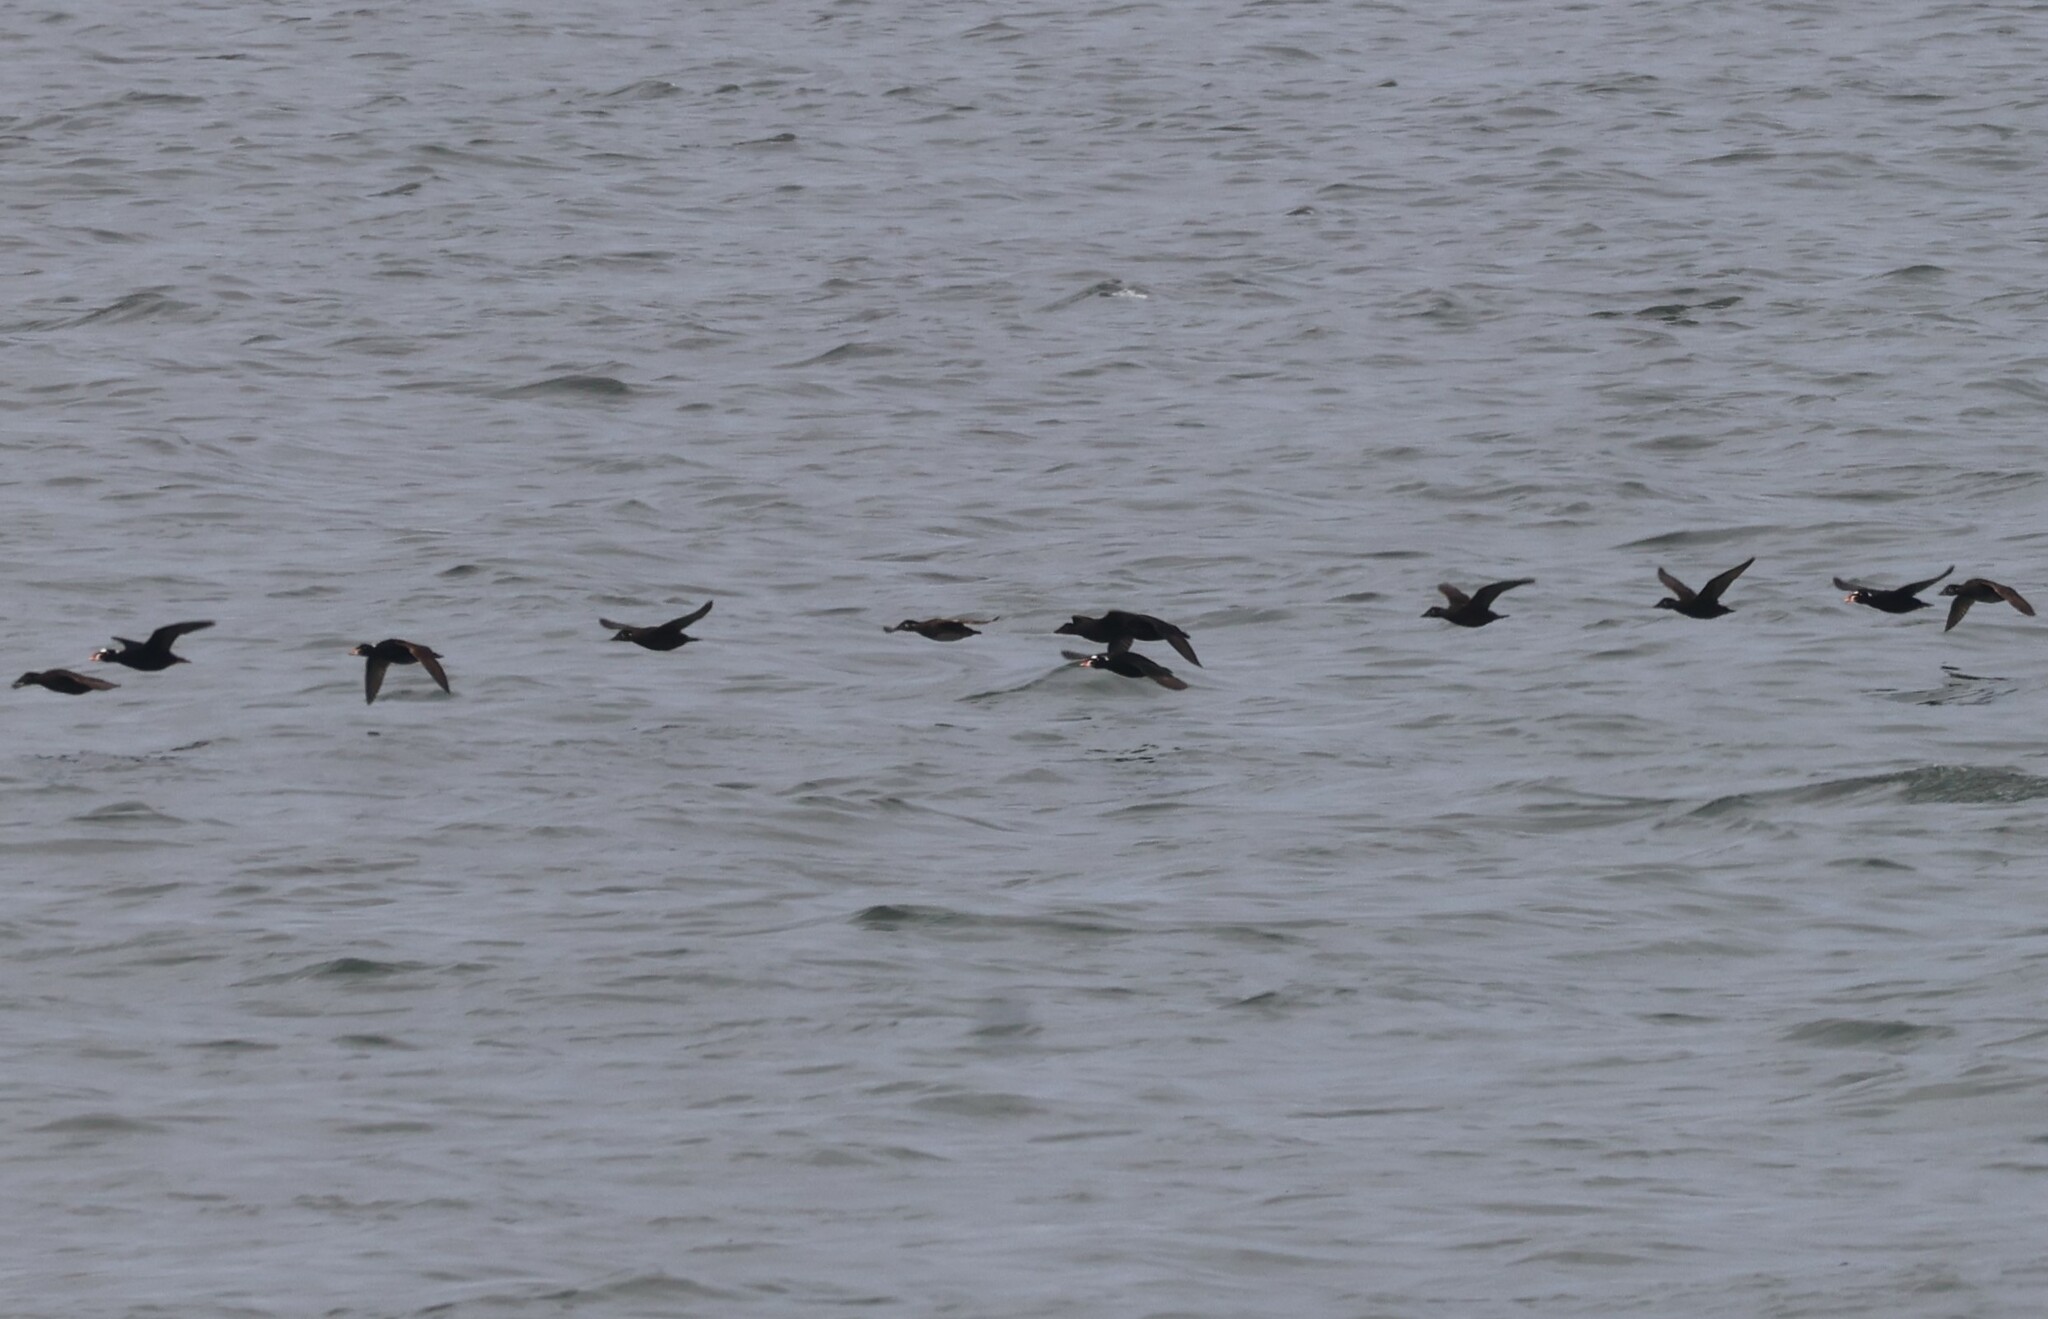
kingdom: Animalia
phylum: Chordata
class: Aves
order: Anseriformes
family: Anatidae
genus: Melanitta
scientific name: Melanitta perspicillata
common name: Surf scoter
